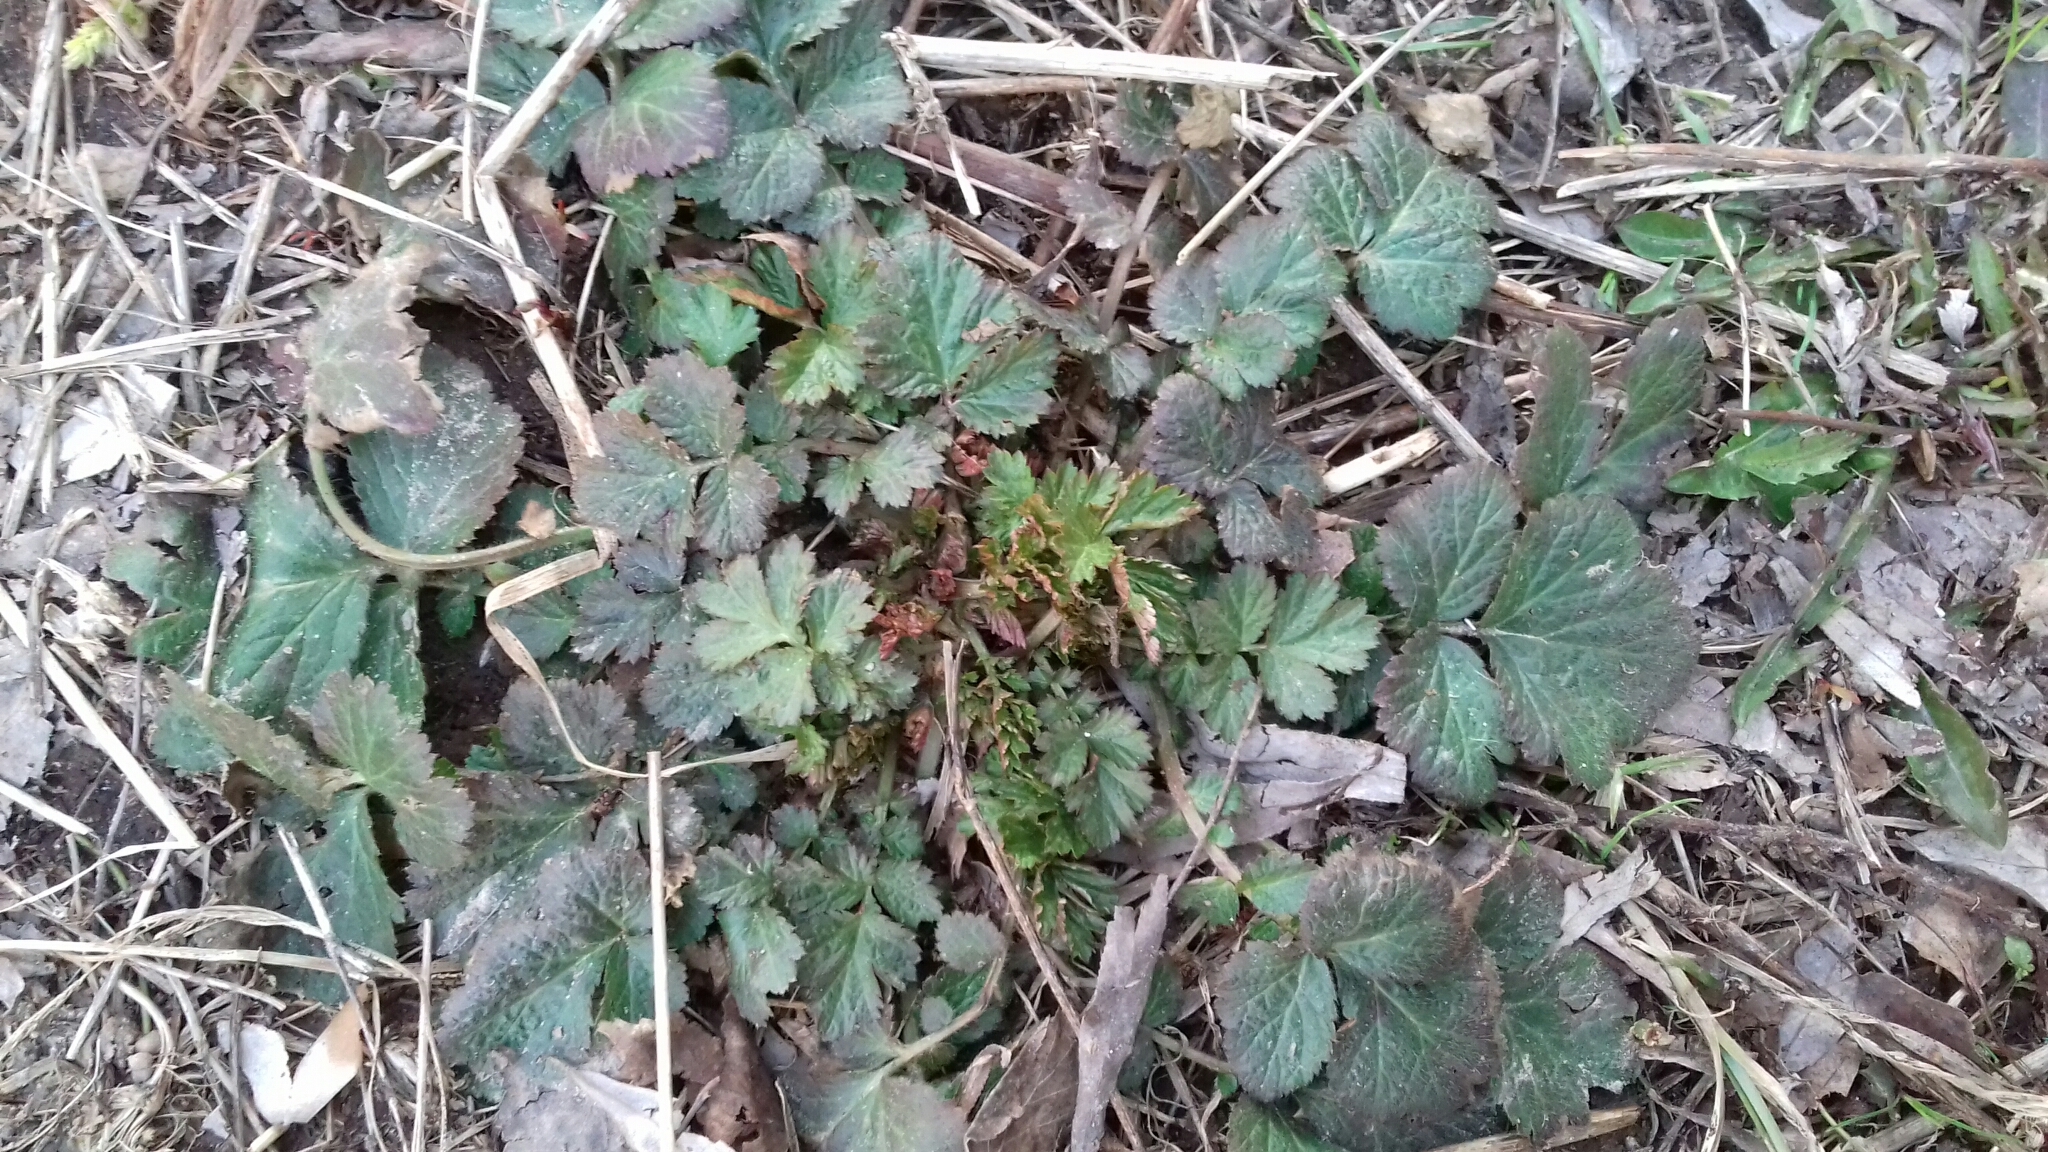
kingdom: Plantae
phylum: Tracheophyta
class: Magnoliopsida
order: Rosales
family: Rosaceae
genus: Geum
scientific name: Geum
